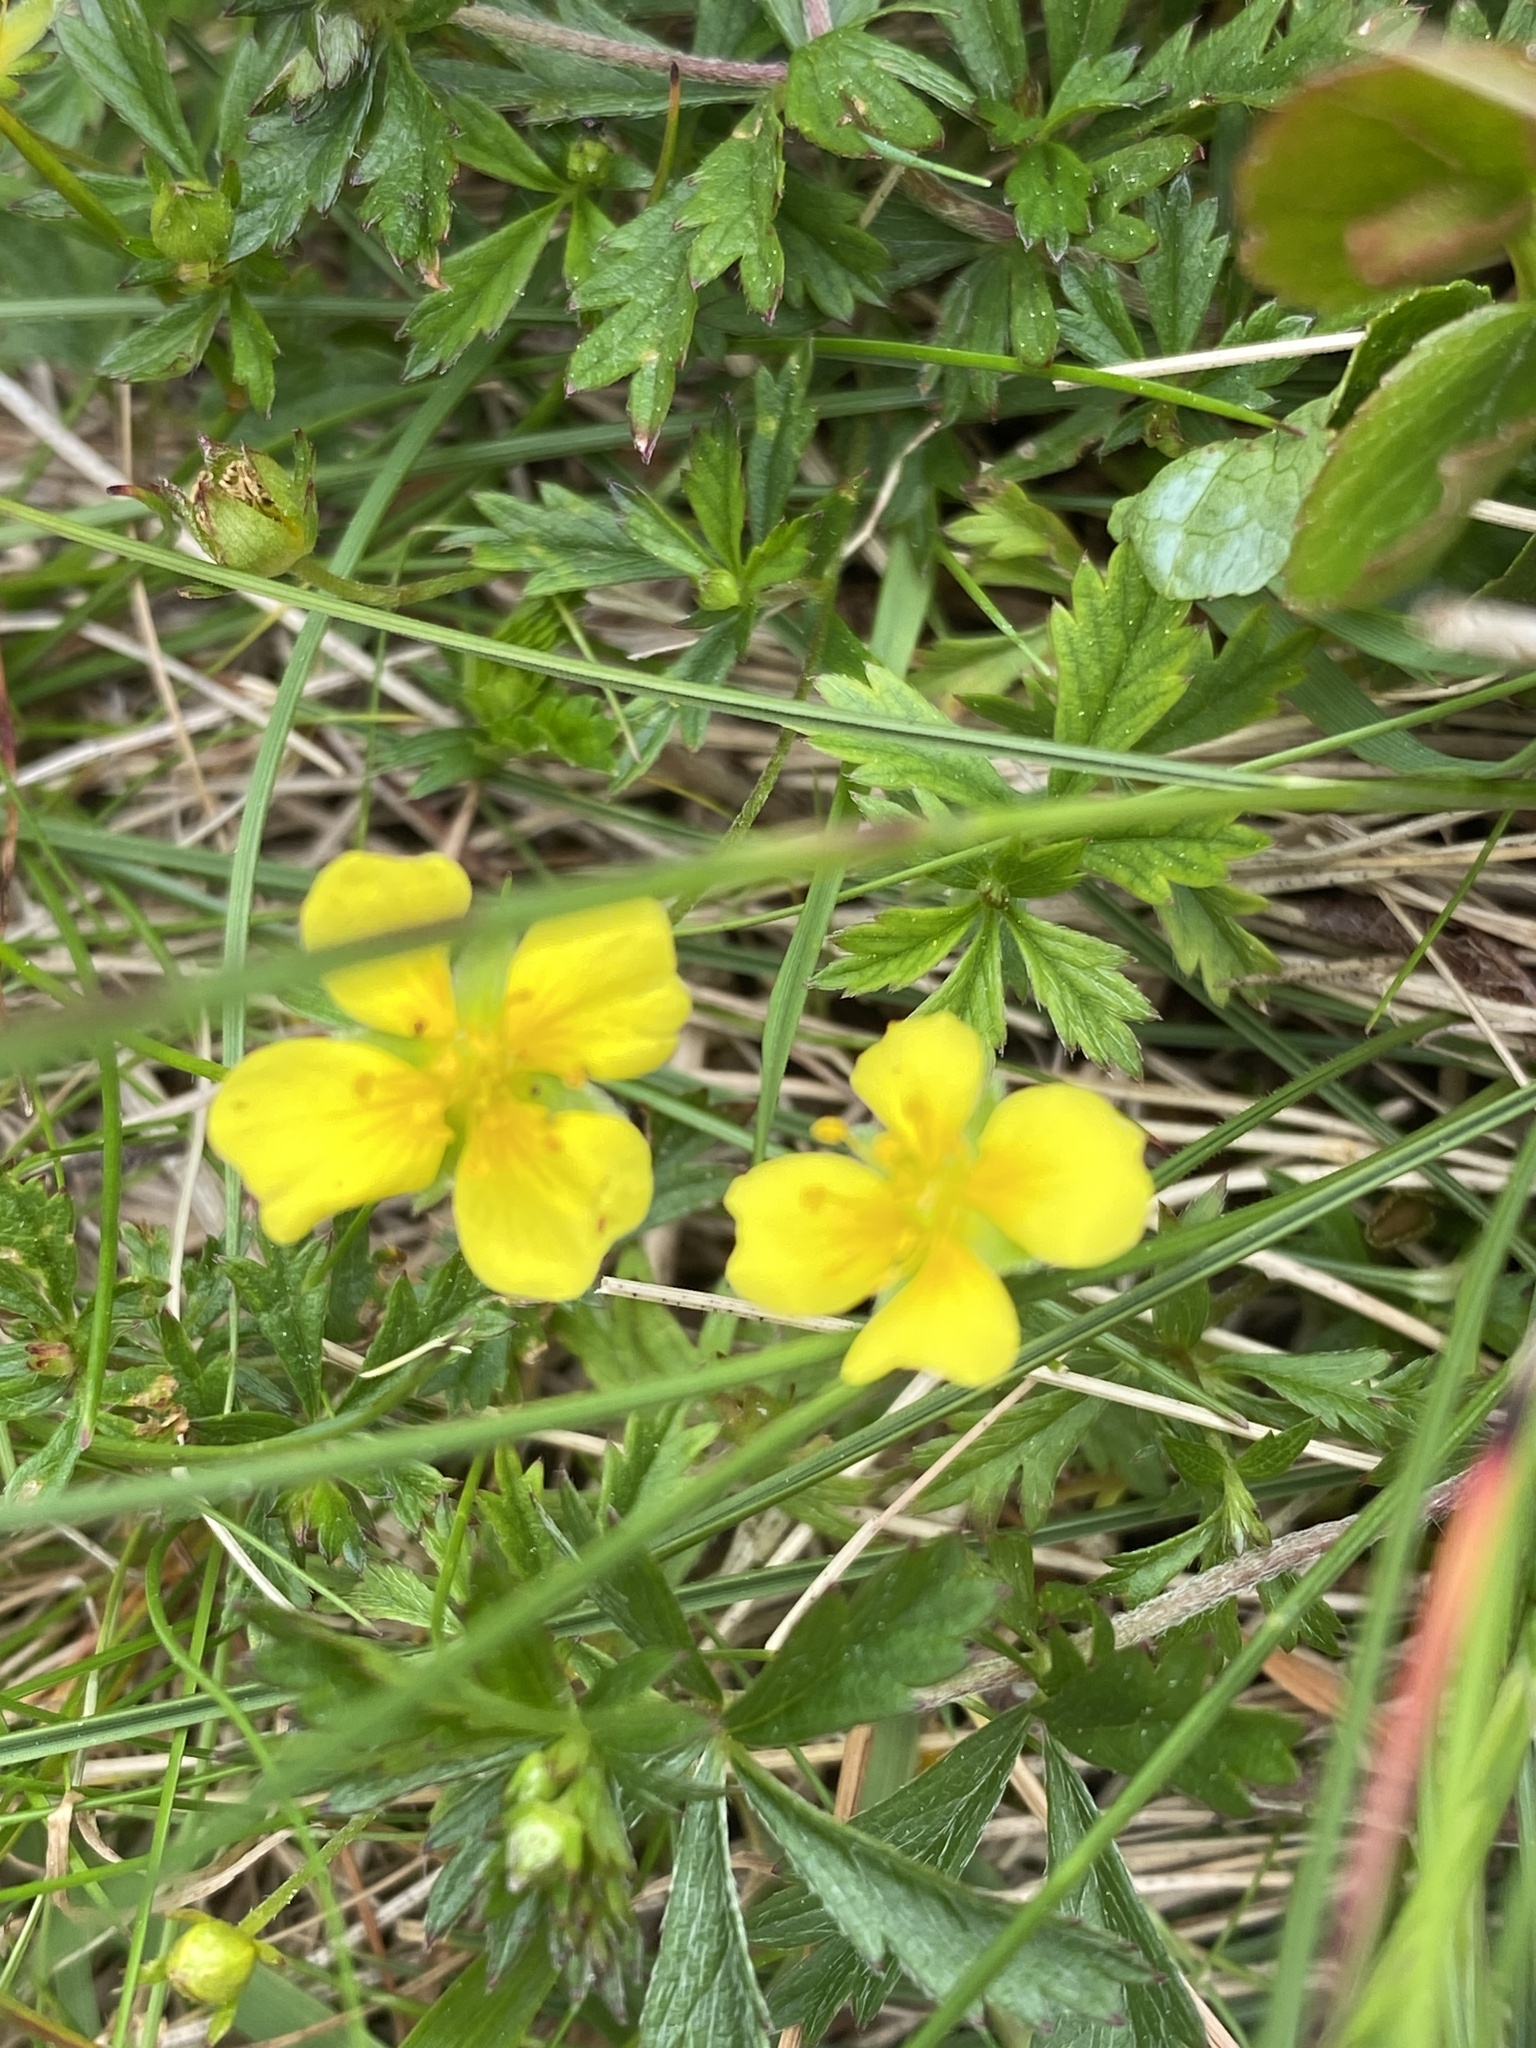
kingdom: Plantae
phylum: Tracheophyta
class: Magnoliopsida
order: Rosales
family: Rosaceae
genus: Potentilla
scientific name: Potentilla erecta
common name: Tormentil
